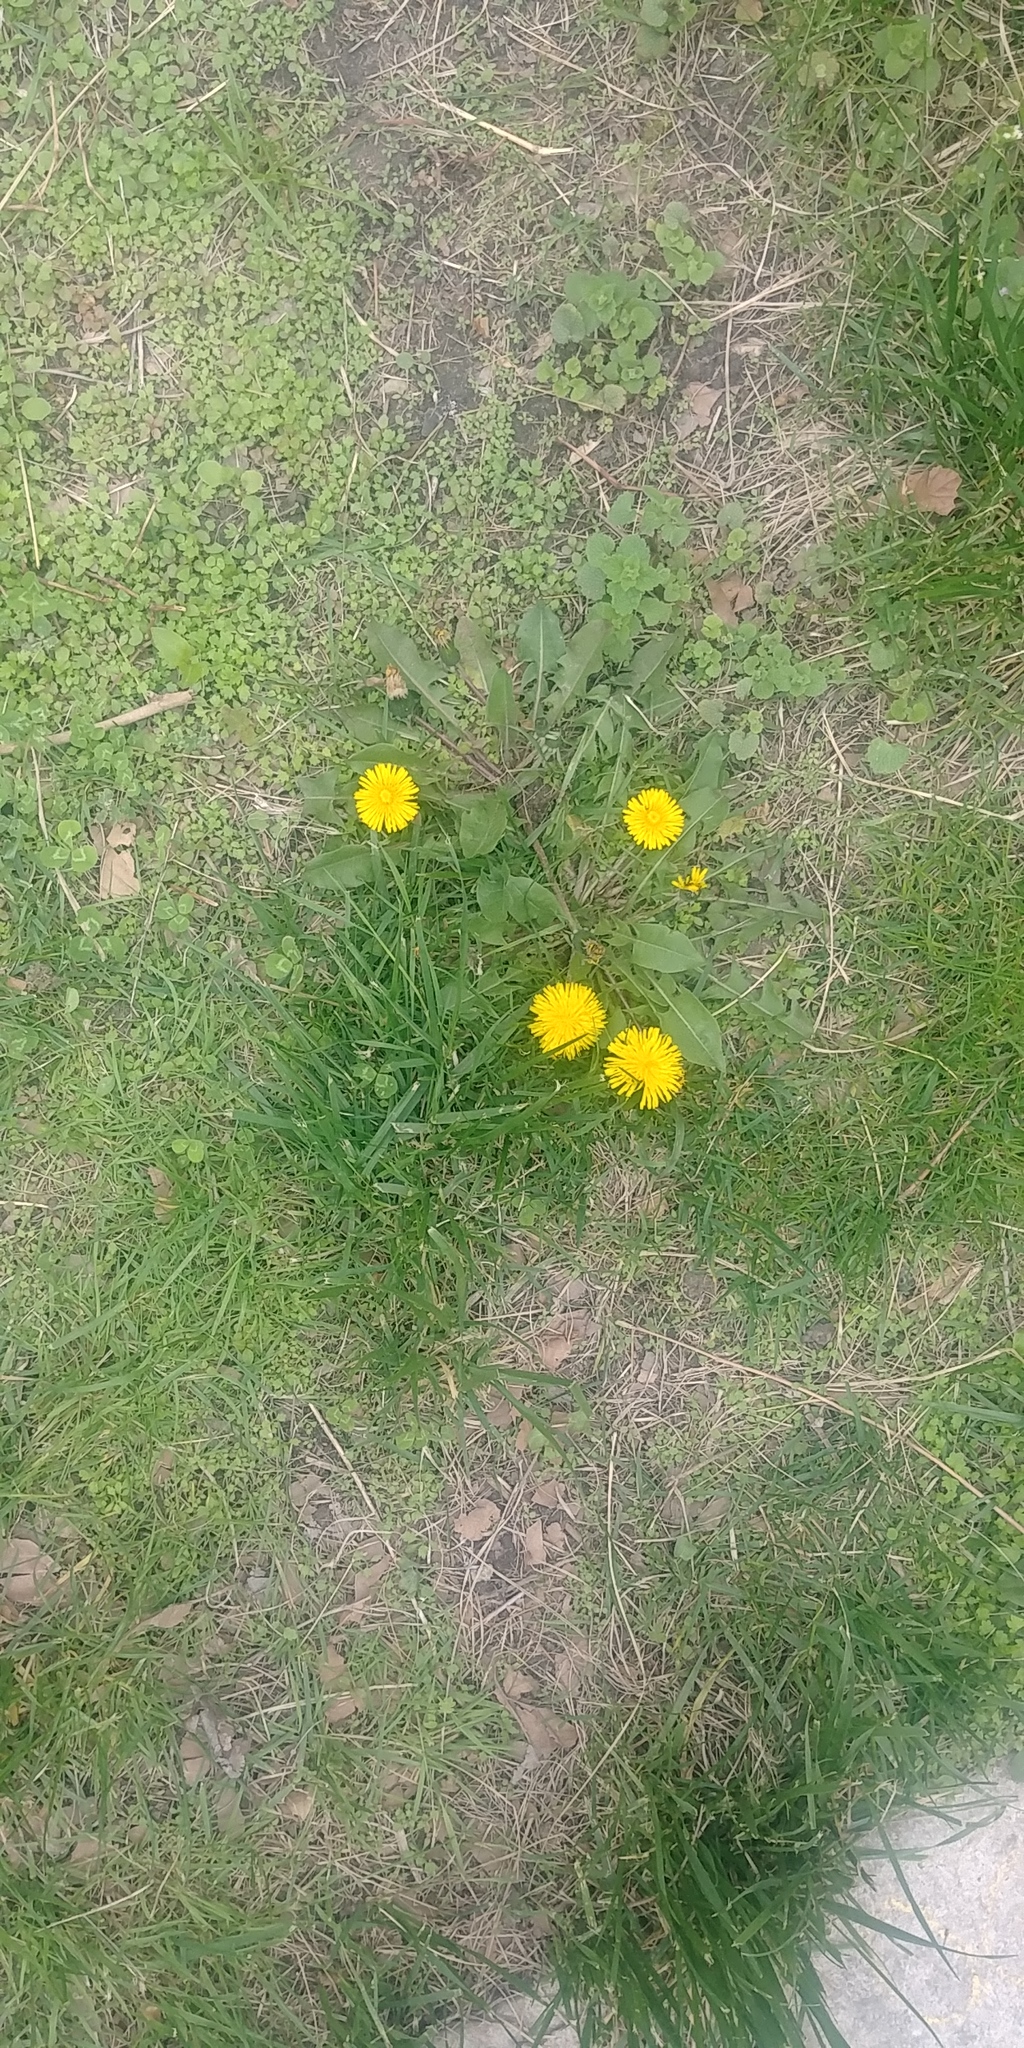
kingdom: Plantae
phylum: Tracheophyta
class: Magnoliopsida
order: Asterales
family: Asteraceae
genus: Taraxacum
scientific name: Taraxacum officinale
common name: Common dandelion
